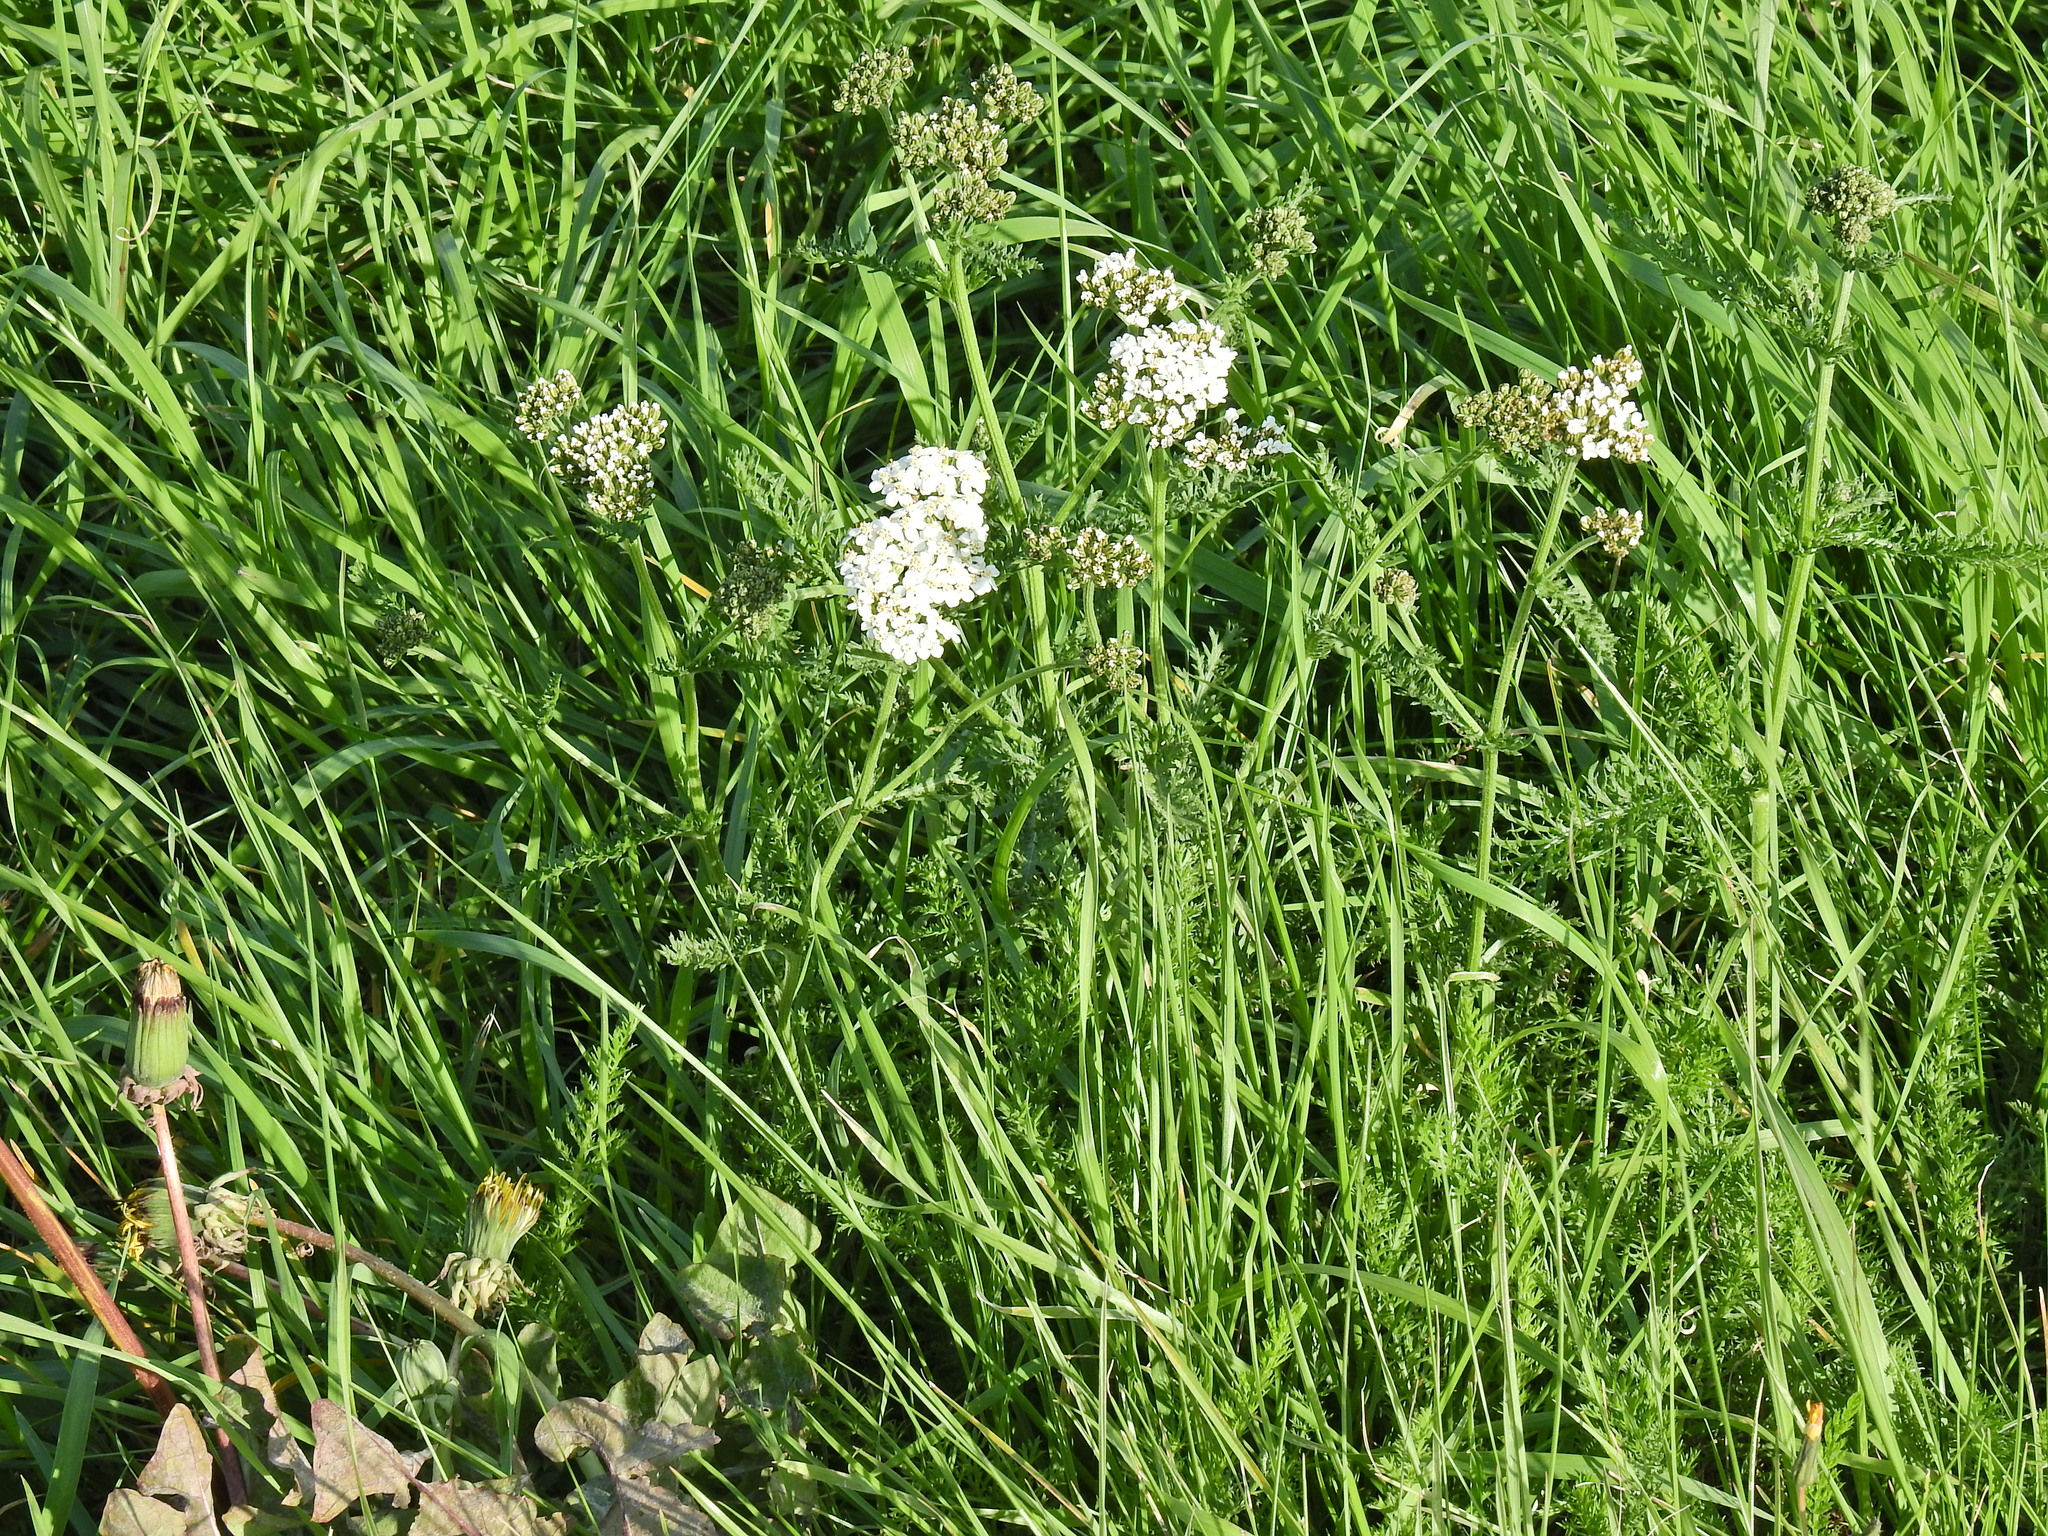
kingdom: Plantae
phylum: Tracheophyta
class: Magnoliopsida
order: Asterales
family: Asteraceae
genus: Achillea
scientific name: Achillea millefolium
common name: Yarrow
